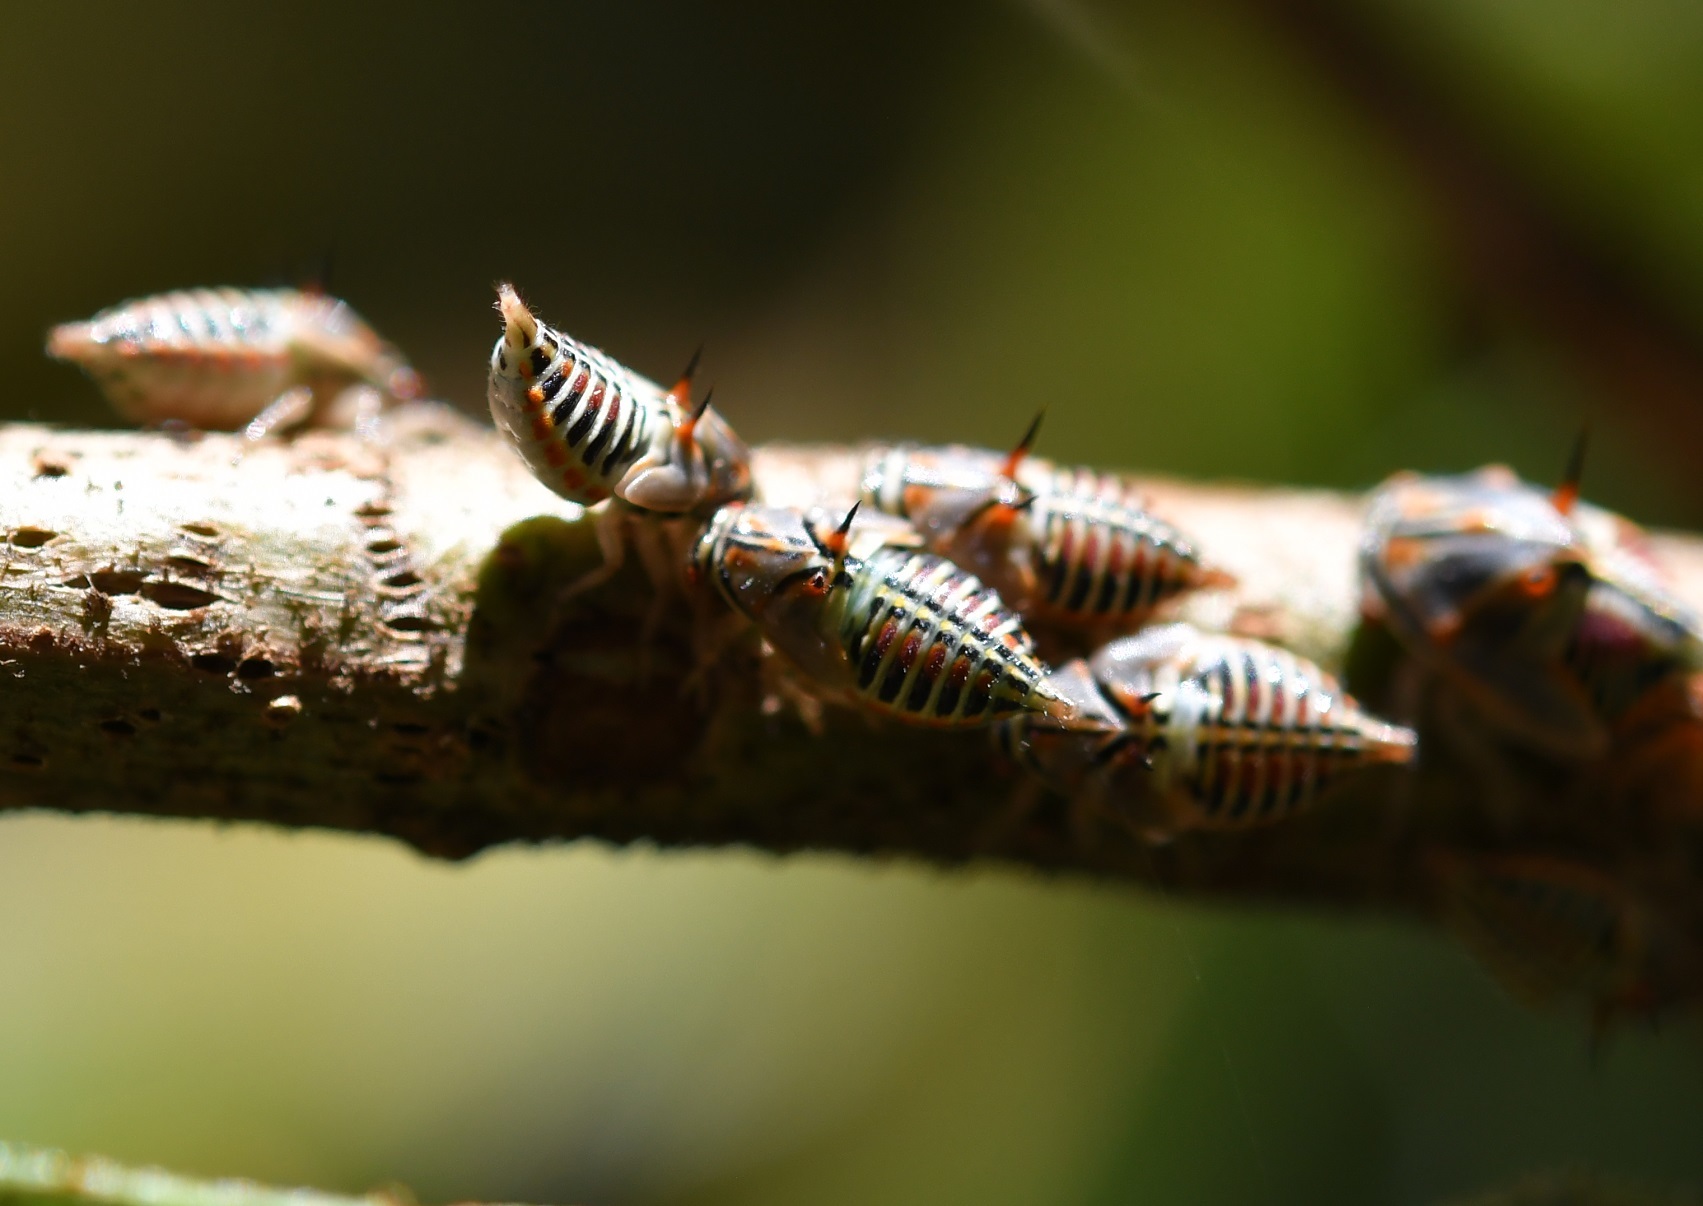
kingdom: Animalia
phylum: Arthropoda
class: Insecta
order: Hemiptera
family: Membracidae
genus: Platycotis
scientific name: Platycotis tuberculata
